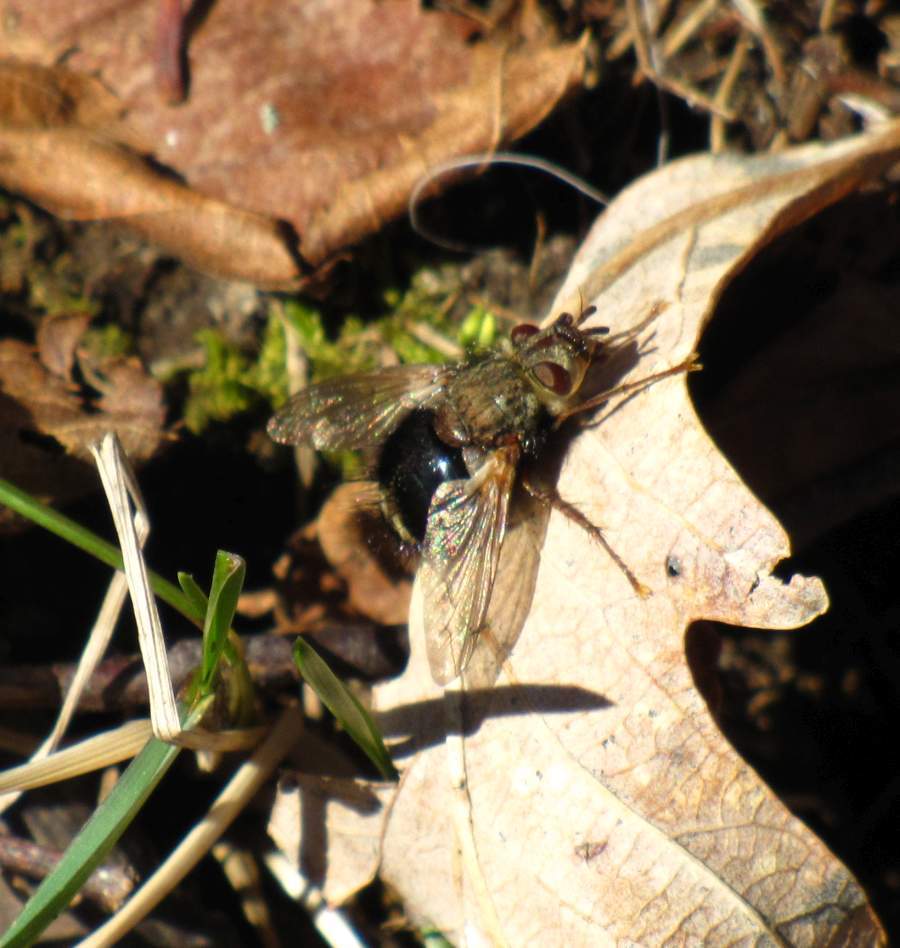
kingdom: Animalia
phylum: Arthropoda
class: Insecta
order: Diptera
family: Tachinidae
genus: Epalpus
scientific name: Epalpus signifer
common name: Early tachinid fly
